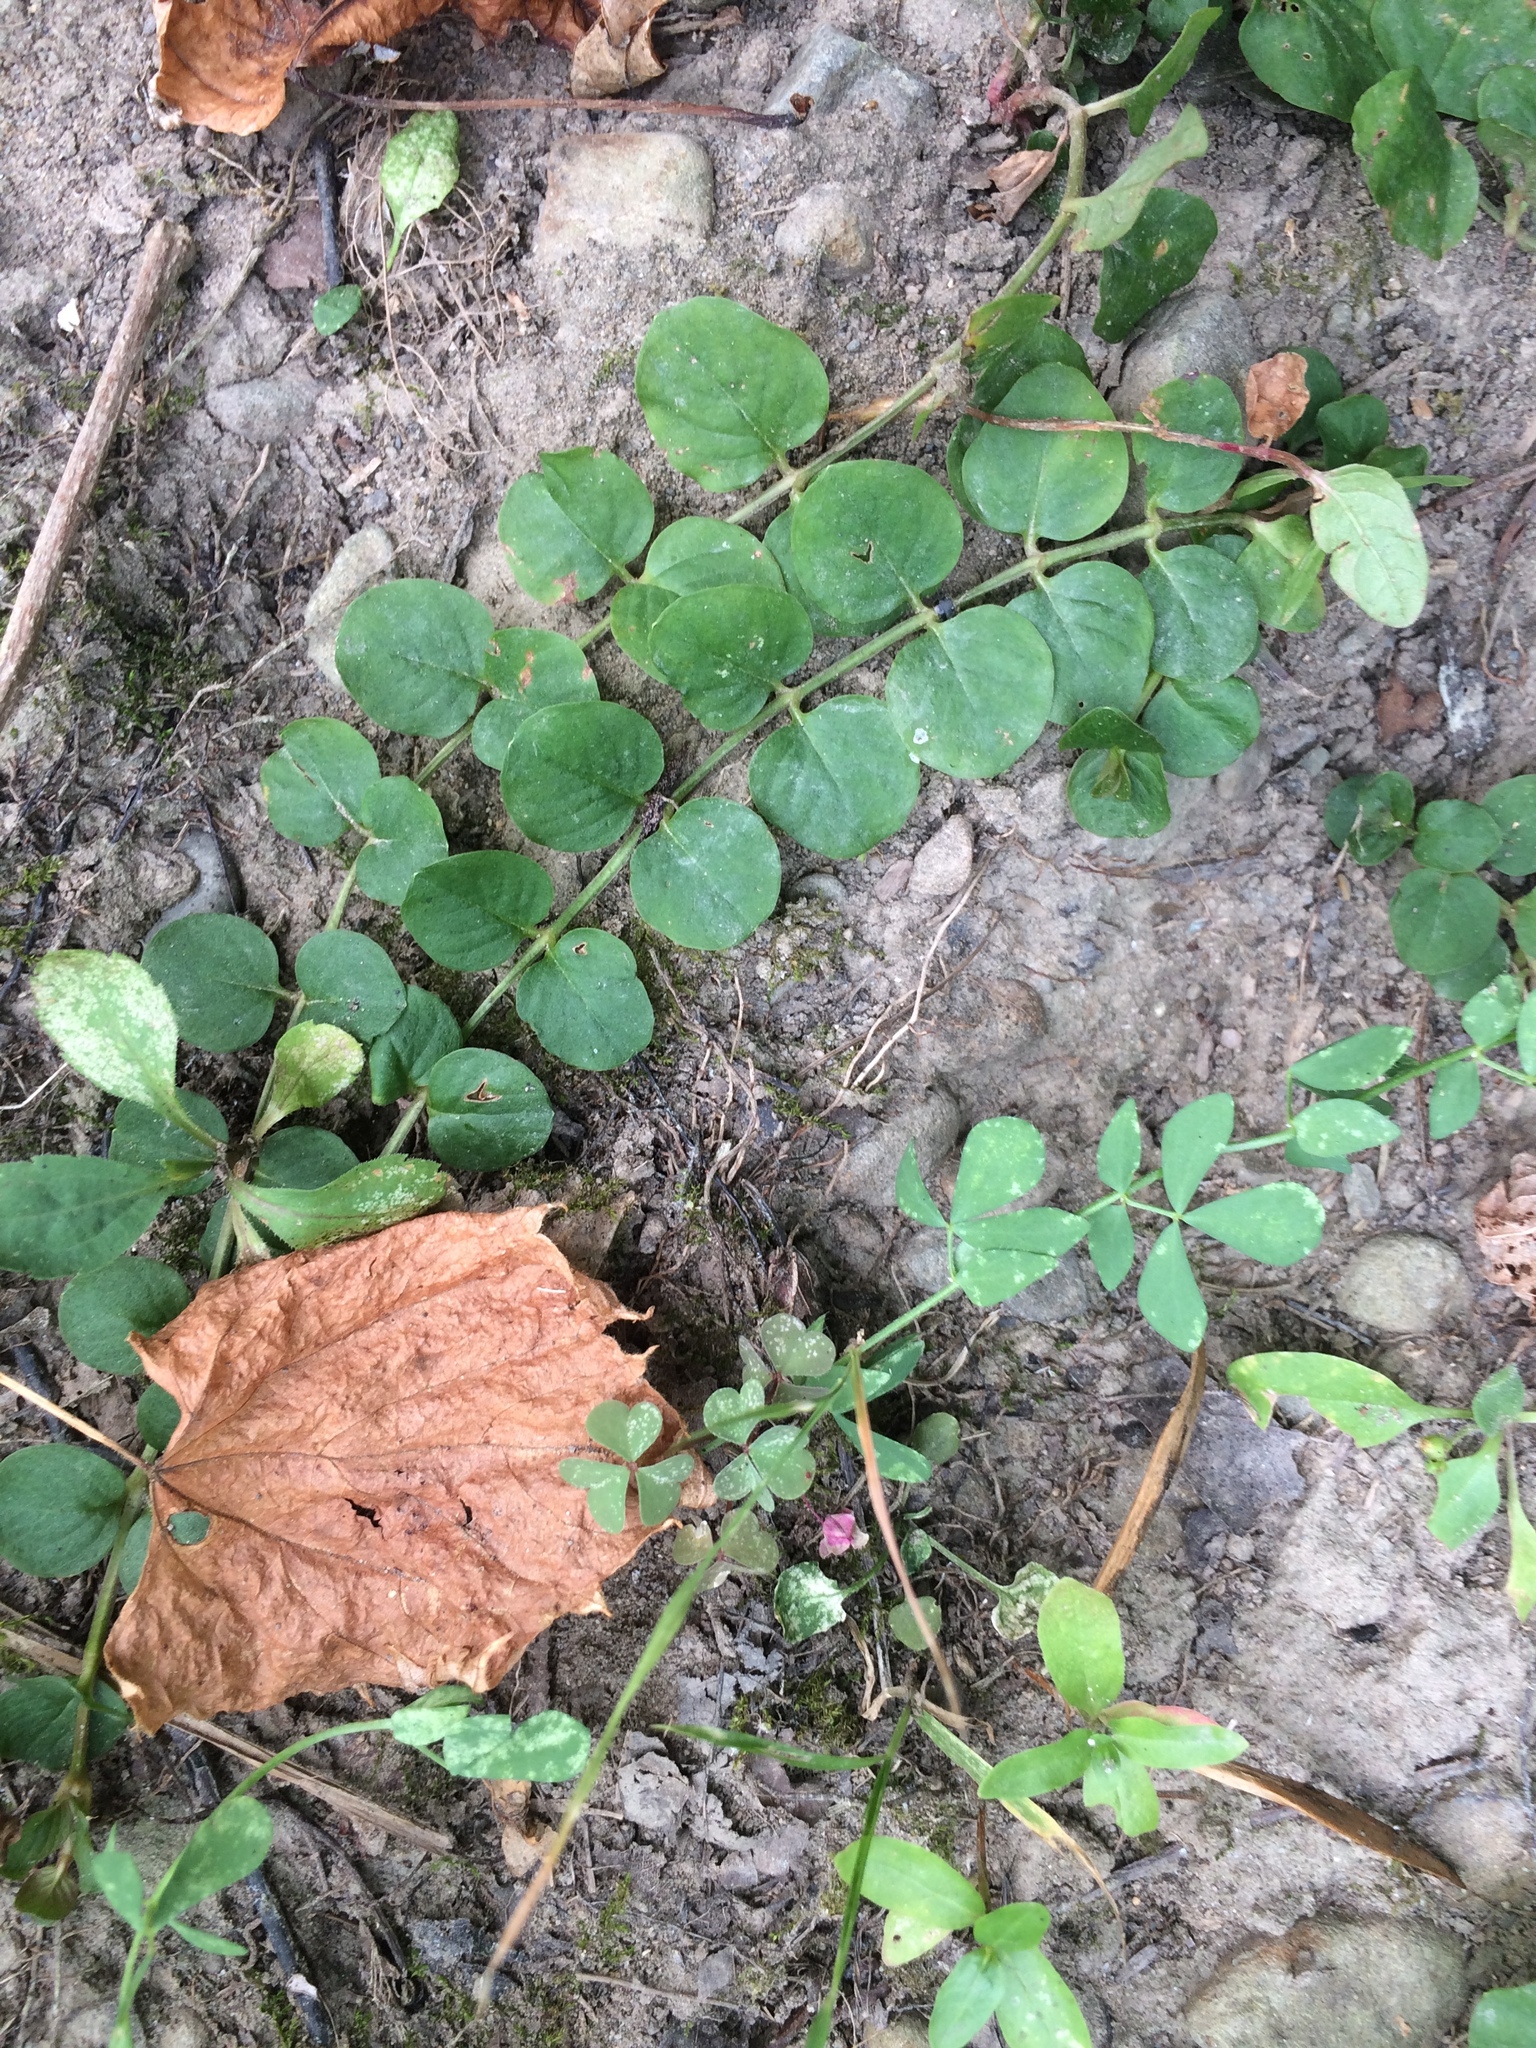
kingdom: Plantae
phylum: Tracheophyta
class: Magnoliopsida
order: Ericales
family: Primulaceae
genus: Lysimachia
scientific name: Lysimachia nummularia
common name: Moneywort
